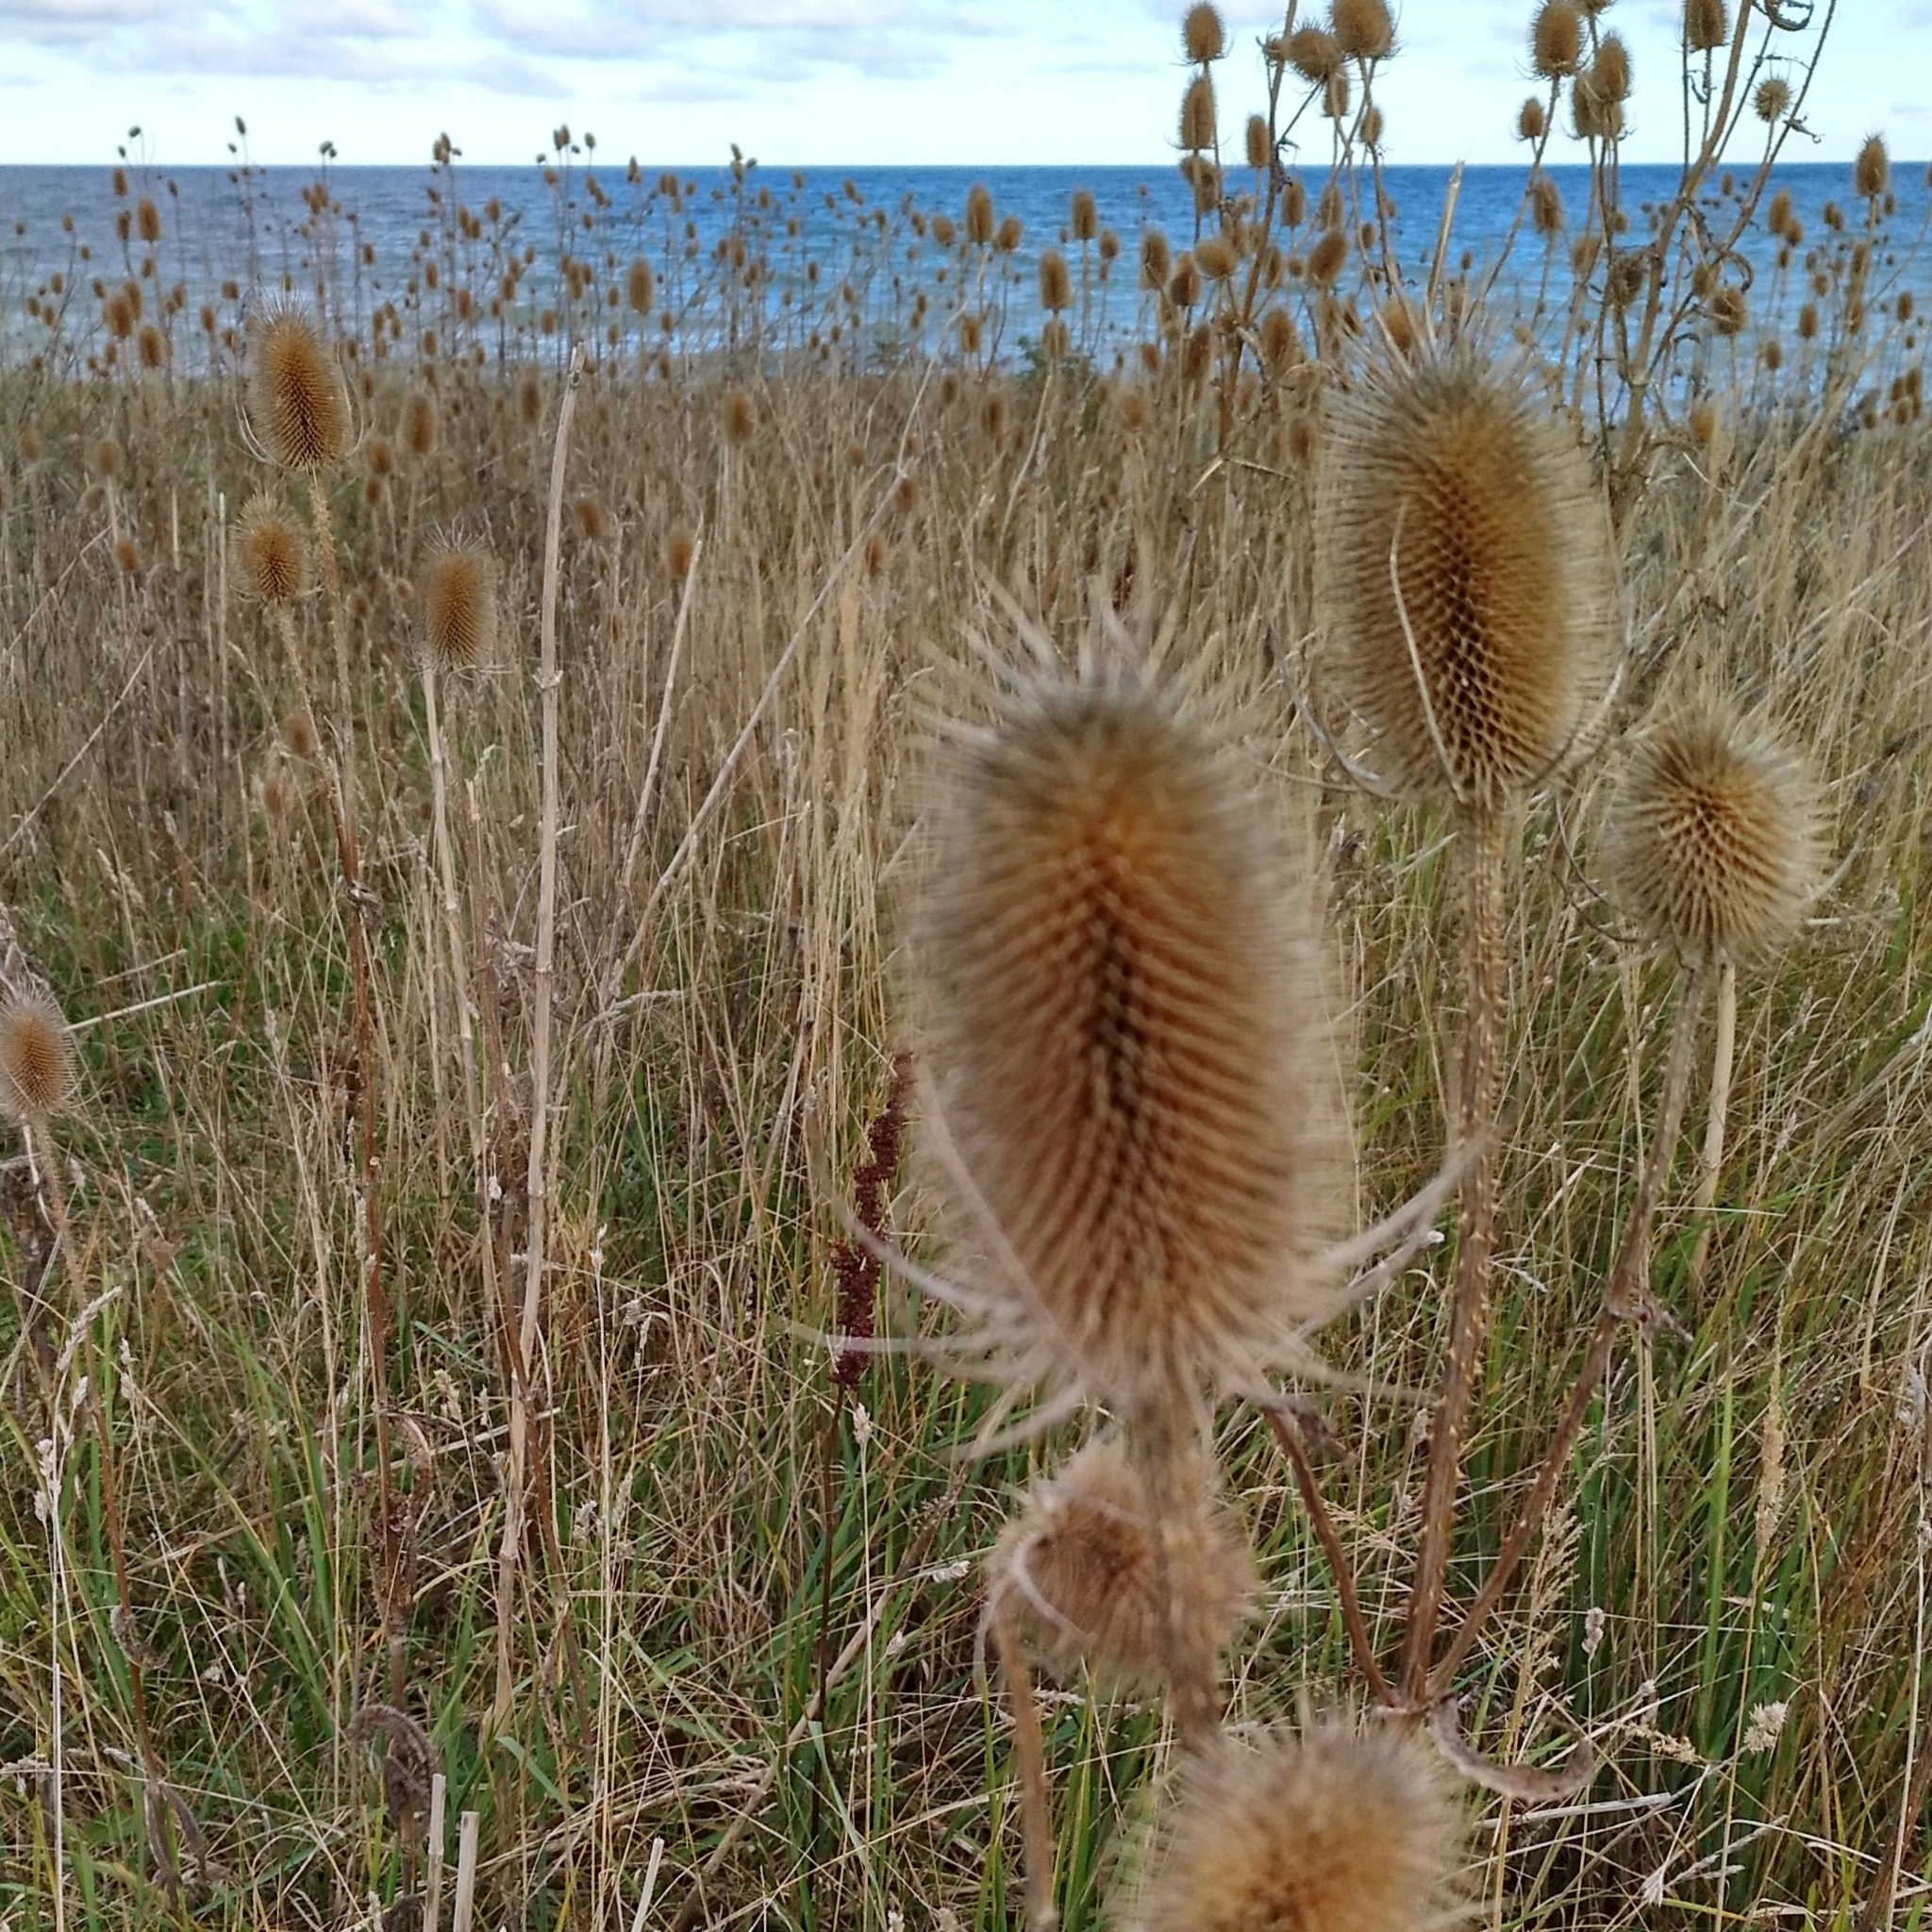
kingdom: Plantae
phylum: Tracheophyta
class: Magnoliopsida
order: Dipsacales
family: Caprifoliaceae
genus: Dipsacus
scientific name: Dipsacus fullonum
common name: Teasel
